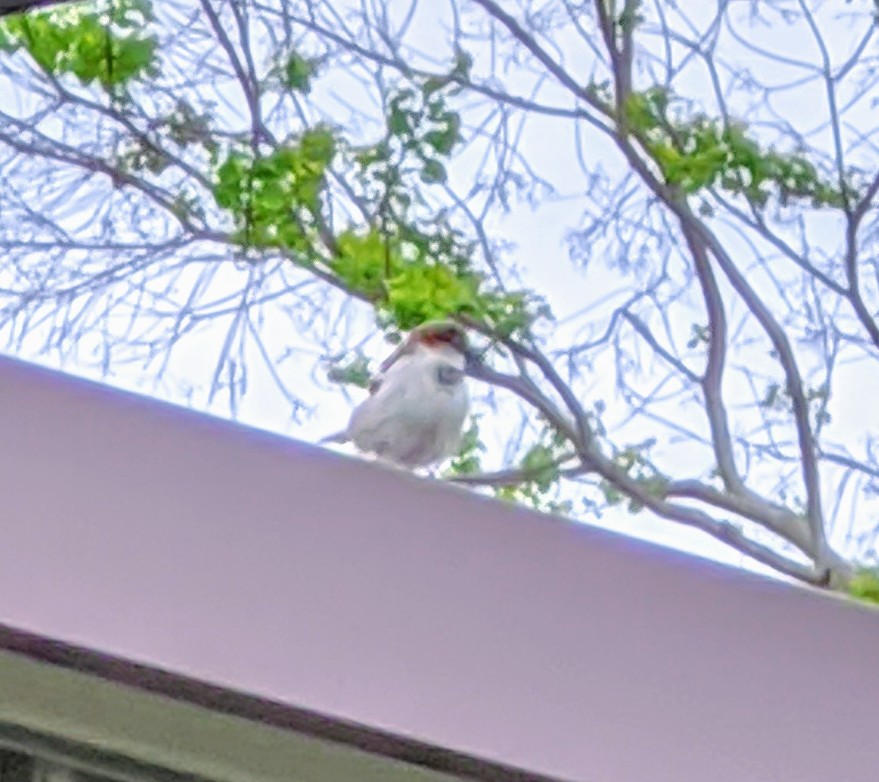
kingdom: Animalia
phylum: Chordata
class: Aves
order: Passeriformes
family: Passeridae
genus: Passer
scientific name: Passer domesticus
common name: House sparrow
